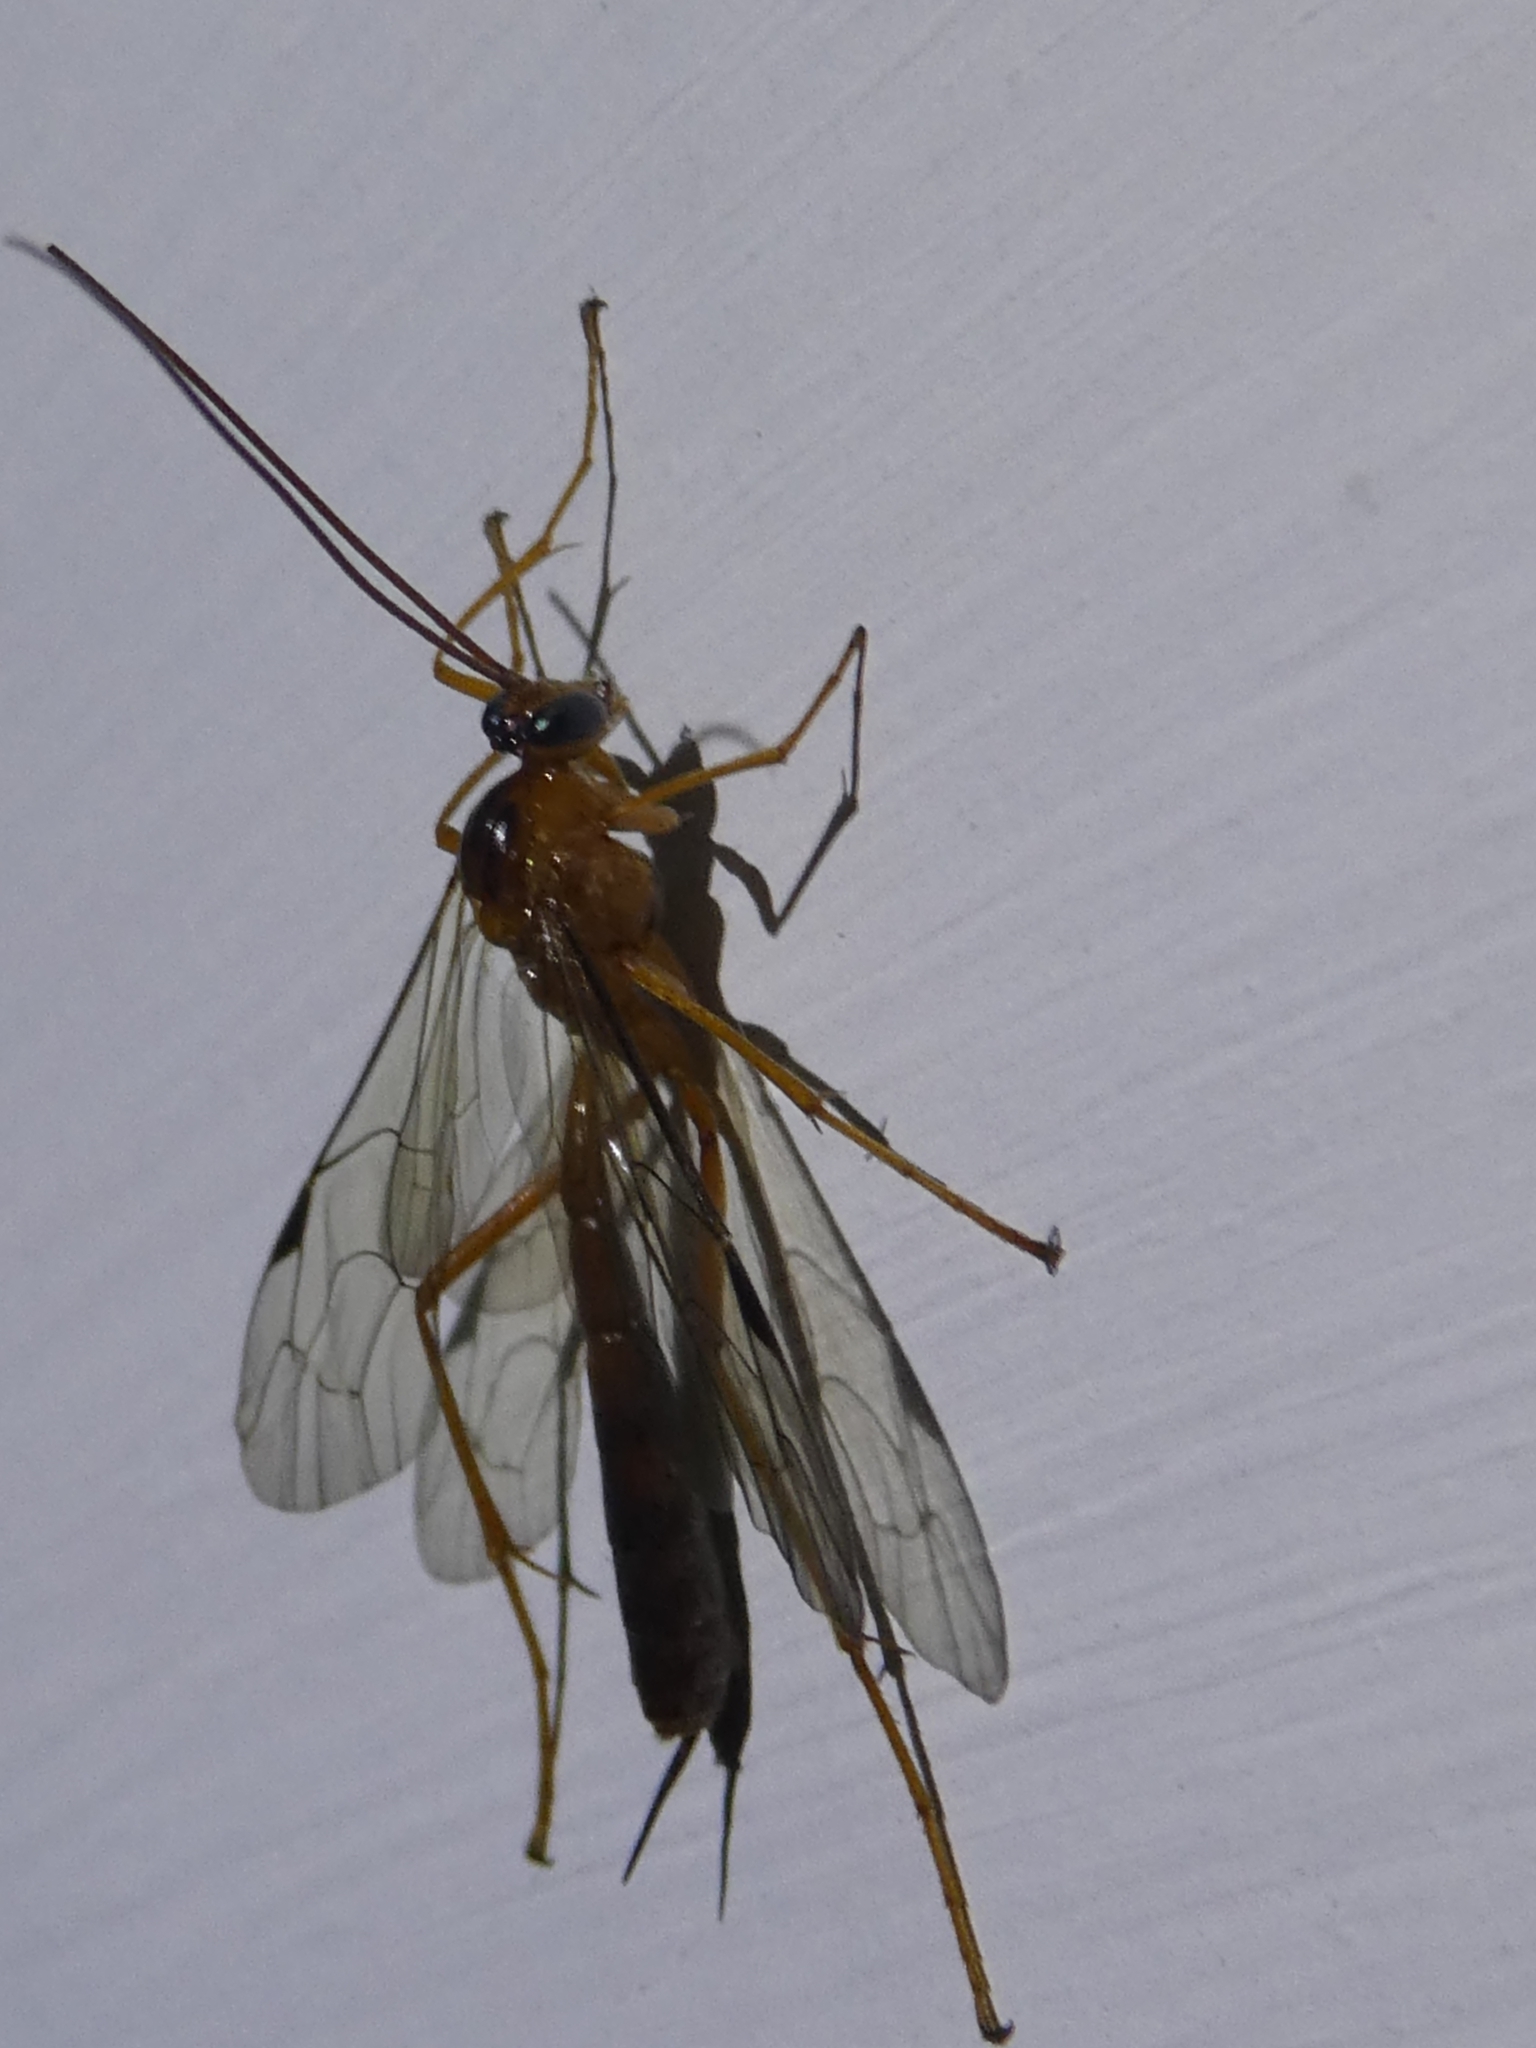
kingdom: Animalia
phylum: Arthropoda
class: Insecta
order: Hymenoptera
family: Ichneumonidae
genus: Netelia
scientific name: Netelia ephippiata
